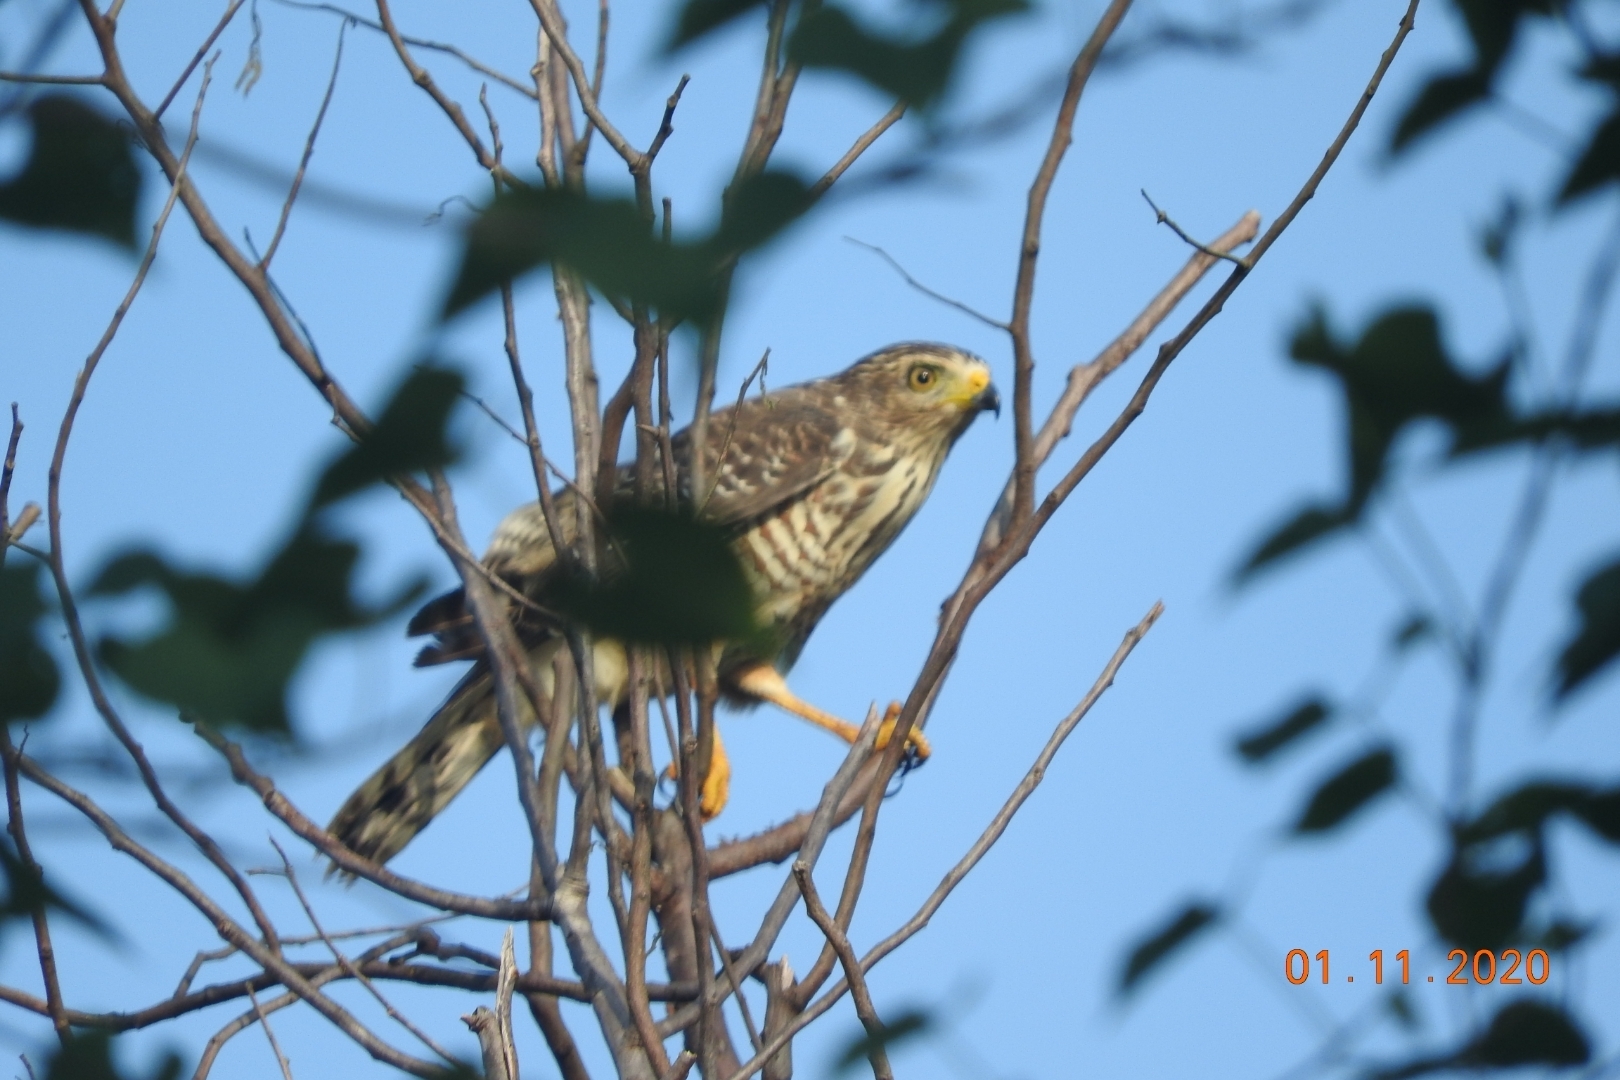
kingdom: Animalia
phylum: Chordata
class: Aves
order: Accipitriformes
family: Accipitridae
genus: Rupornis
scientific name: Rupornis magnirostris
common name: Roadside hawk
